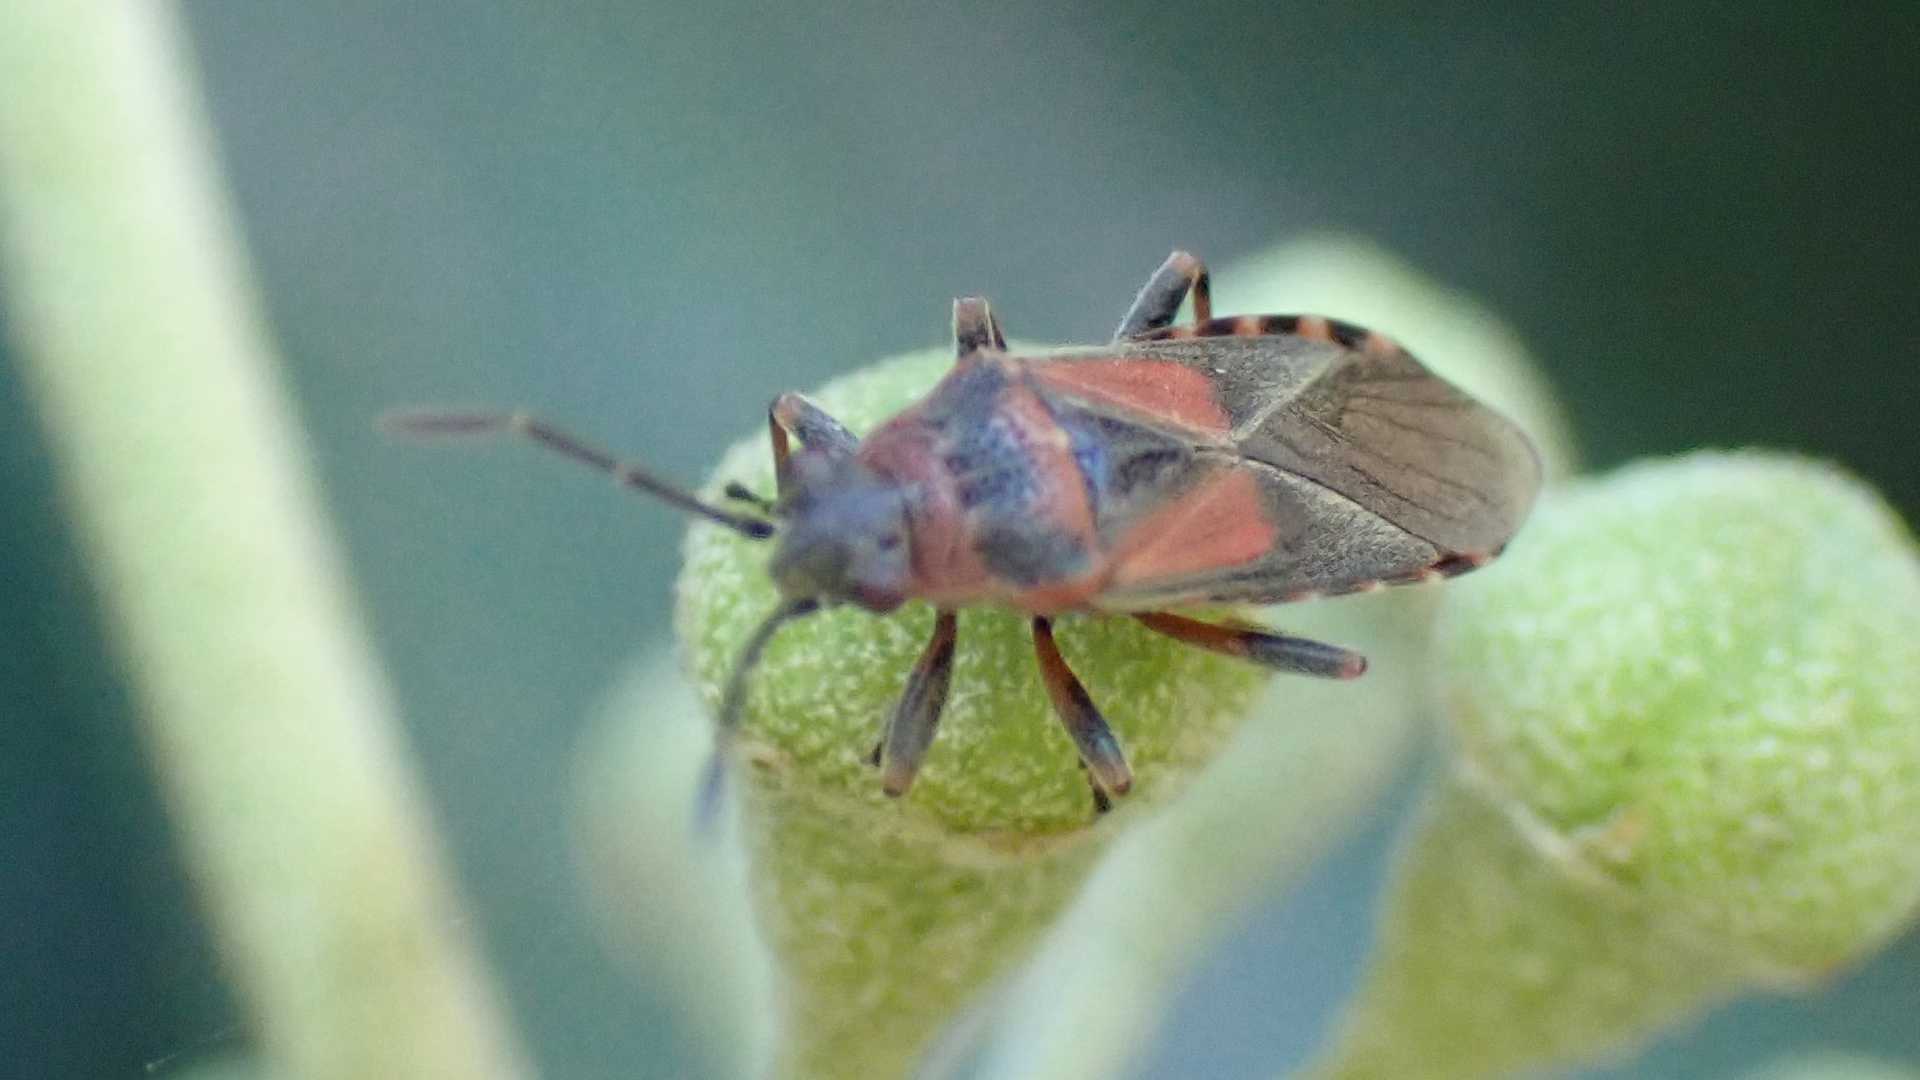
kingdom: Animalia
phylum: Arthropoda
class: Insecta
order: Hemiptera
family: Lygaeidae
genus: Arocatus
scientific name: Arocatus melanocephalus
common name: Lygaeid bug
